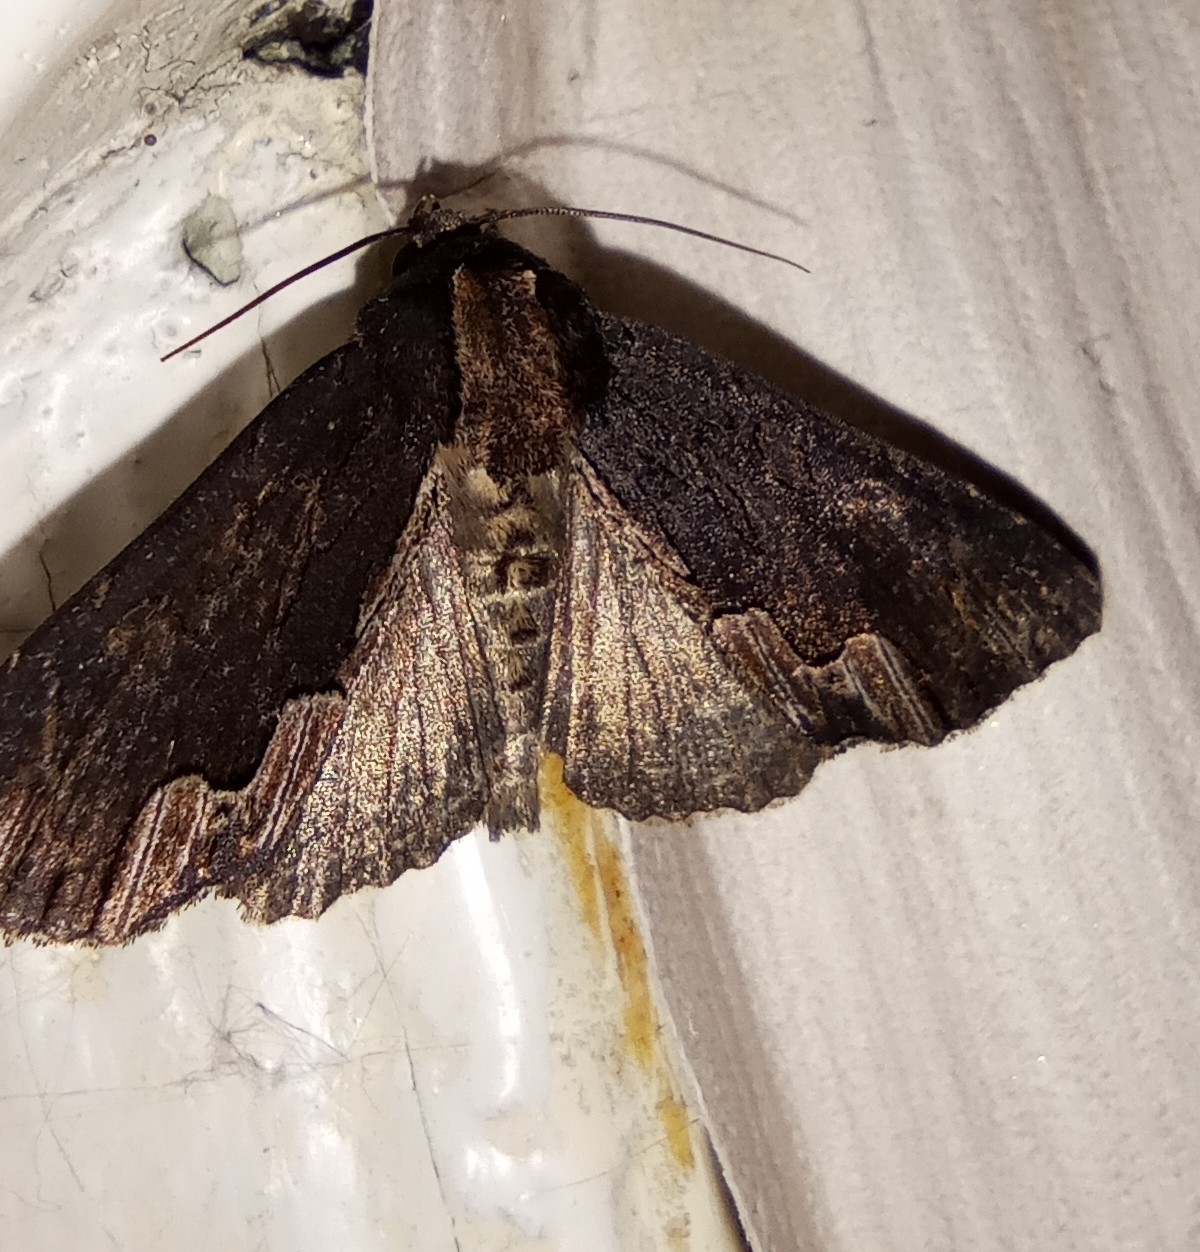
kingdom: Animalia
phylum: Arthropoda
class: Insecta
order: Lepidoptera
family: Noctuidae
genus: Dypterygia
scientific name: Dypterygia scabriuscula
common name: Bird's wing
